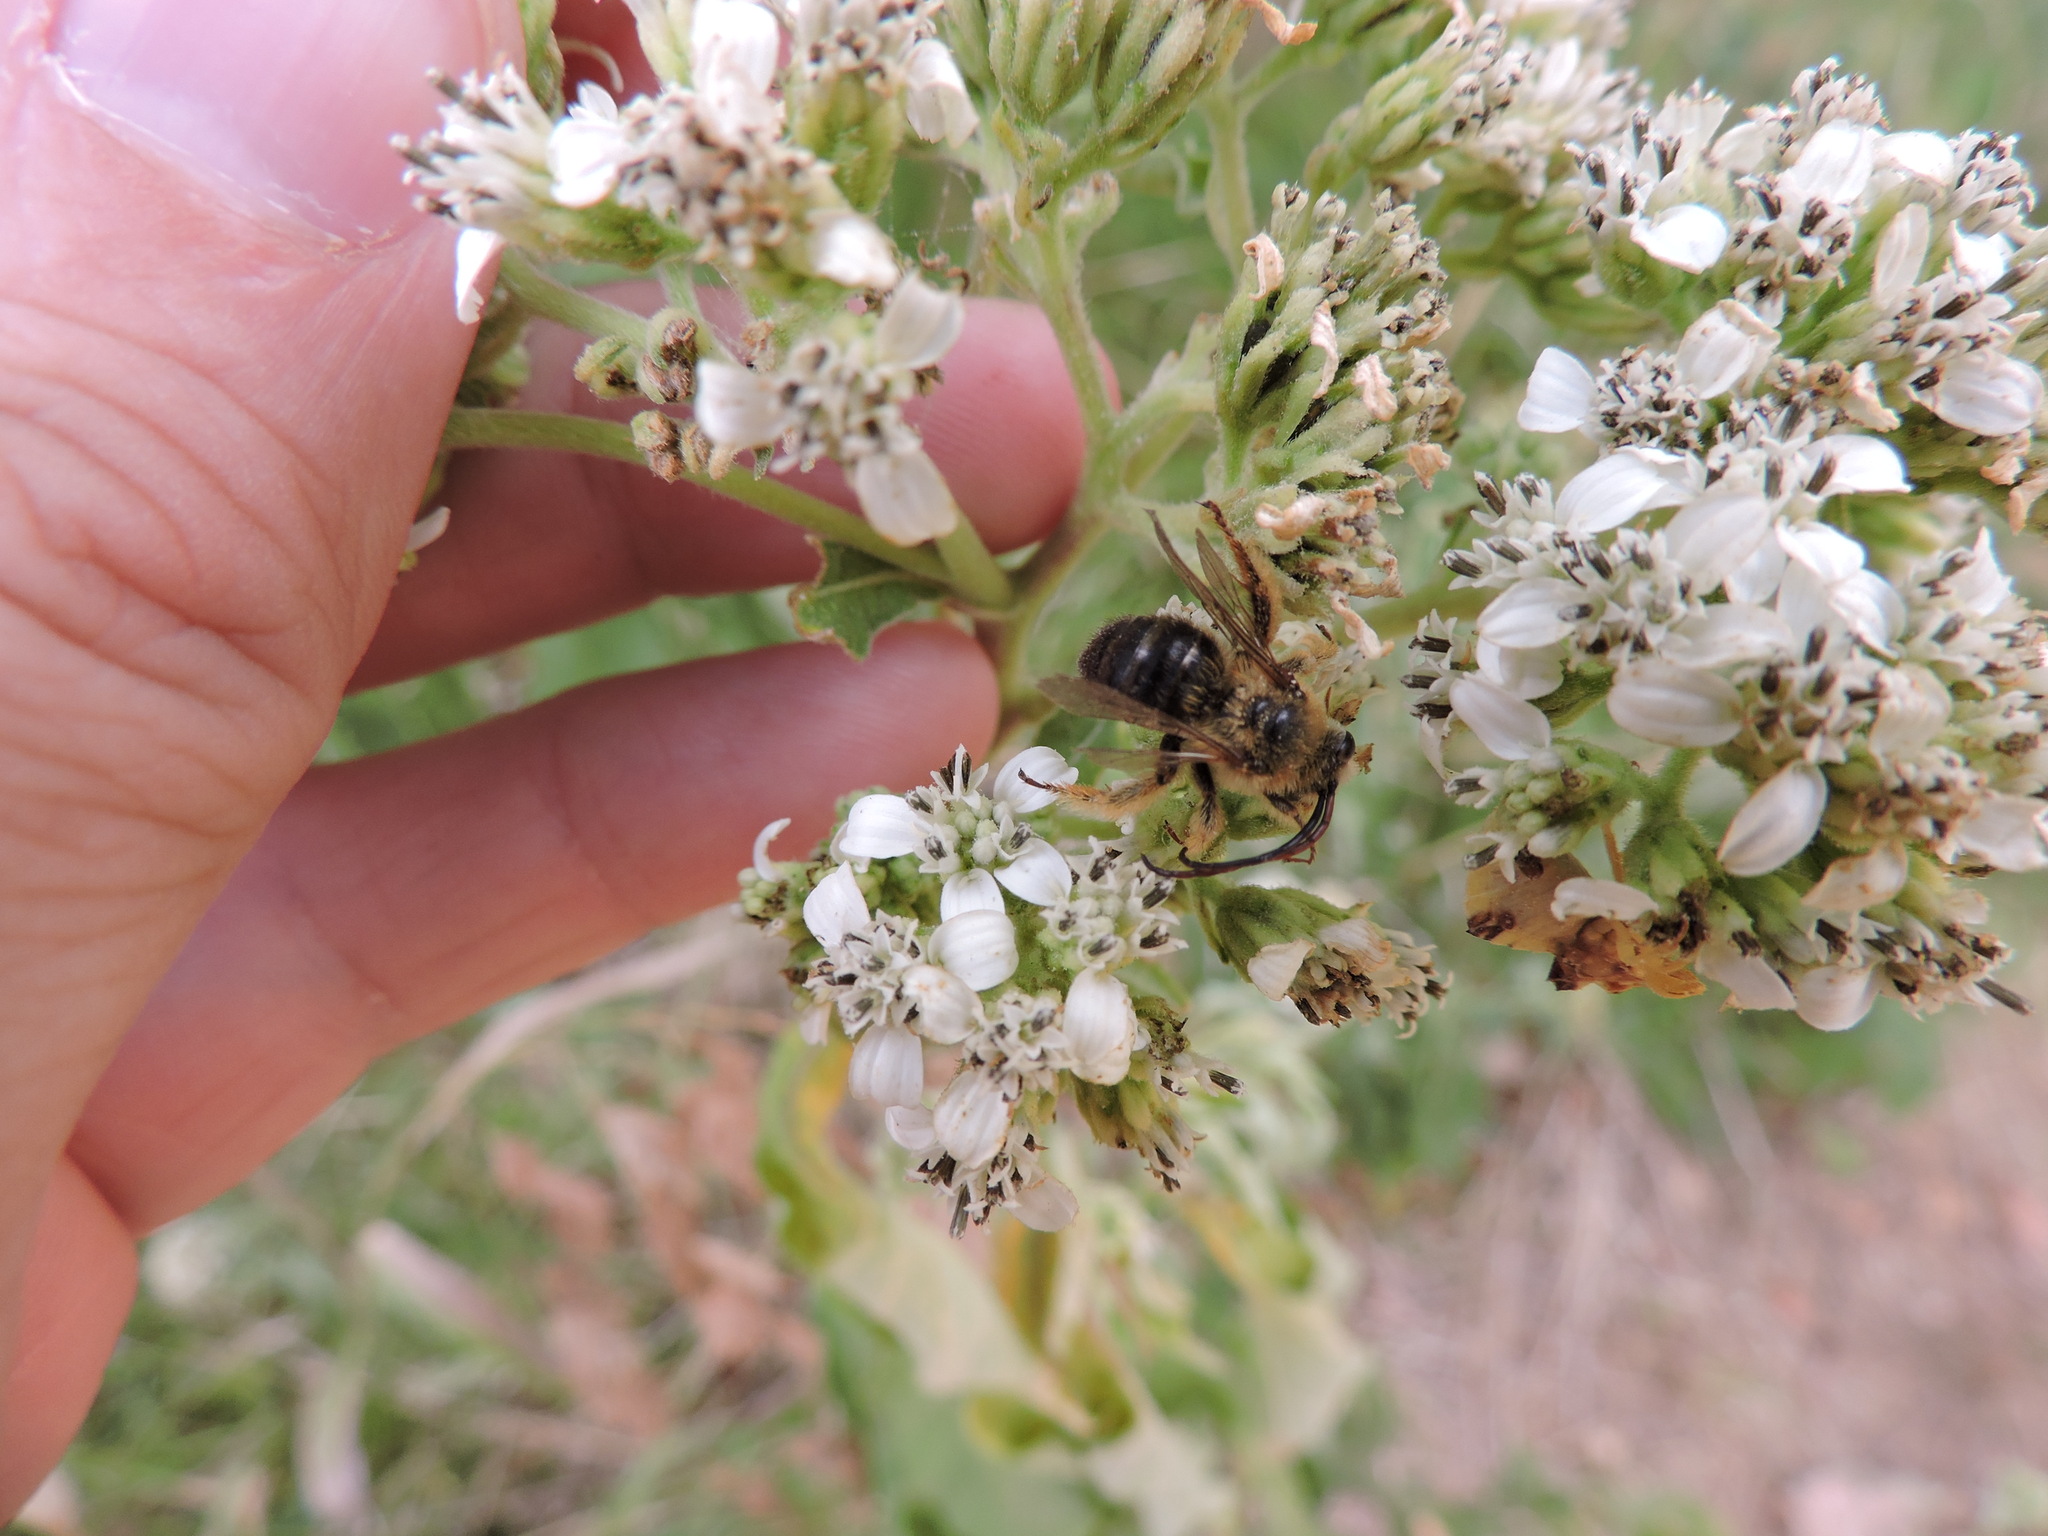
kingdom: Animalia
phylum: Arthropoda
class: Insecta
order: Hymenoptera
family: Apidae
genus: Melissodes
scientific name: Melissodes dentiventris
